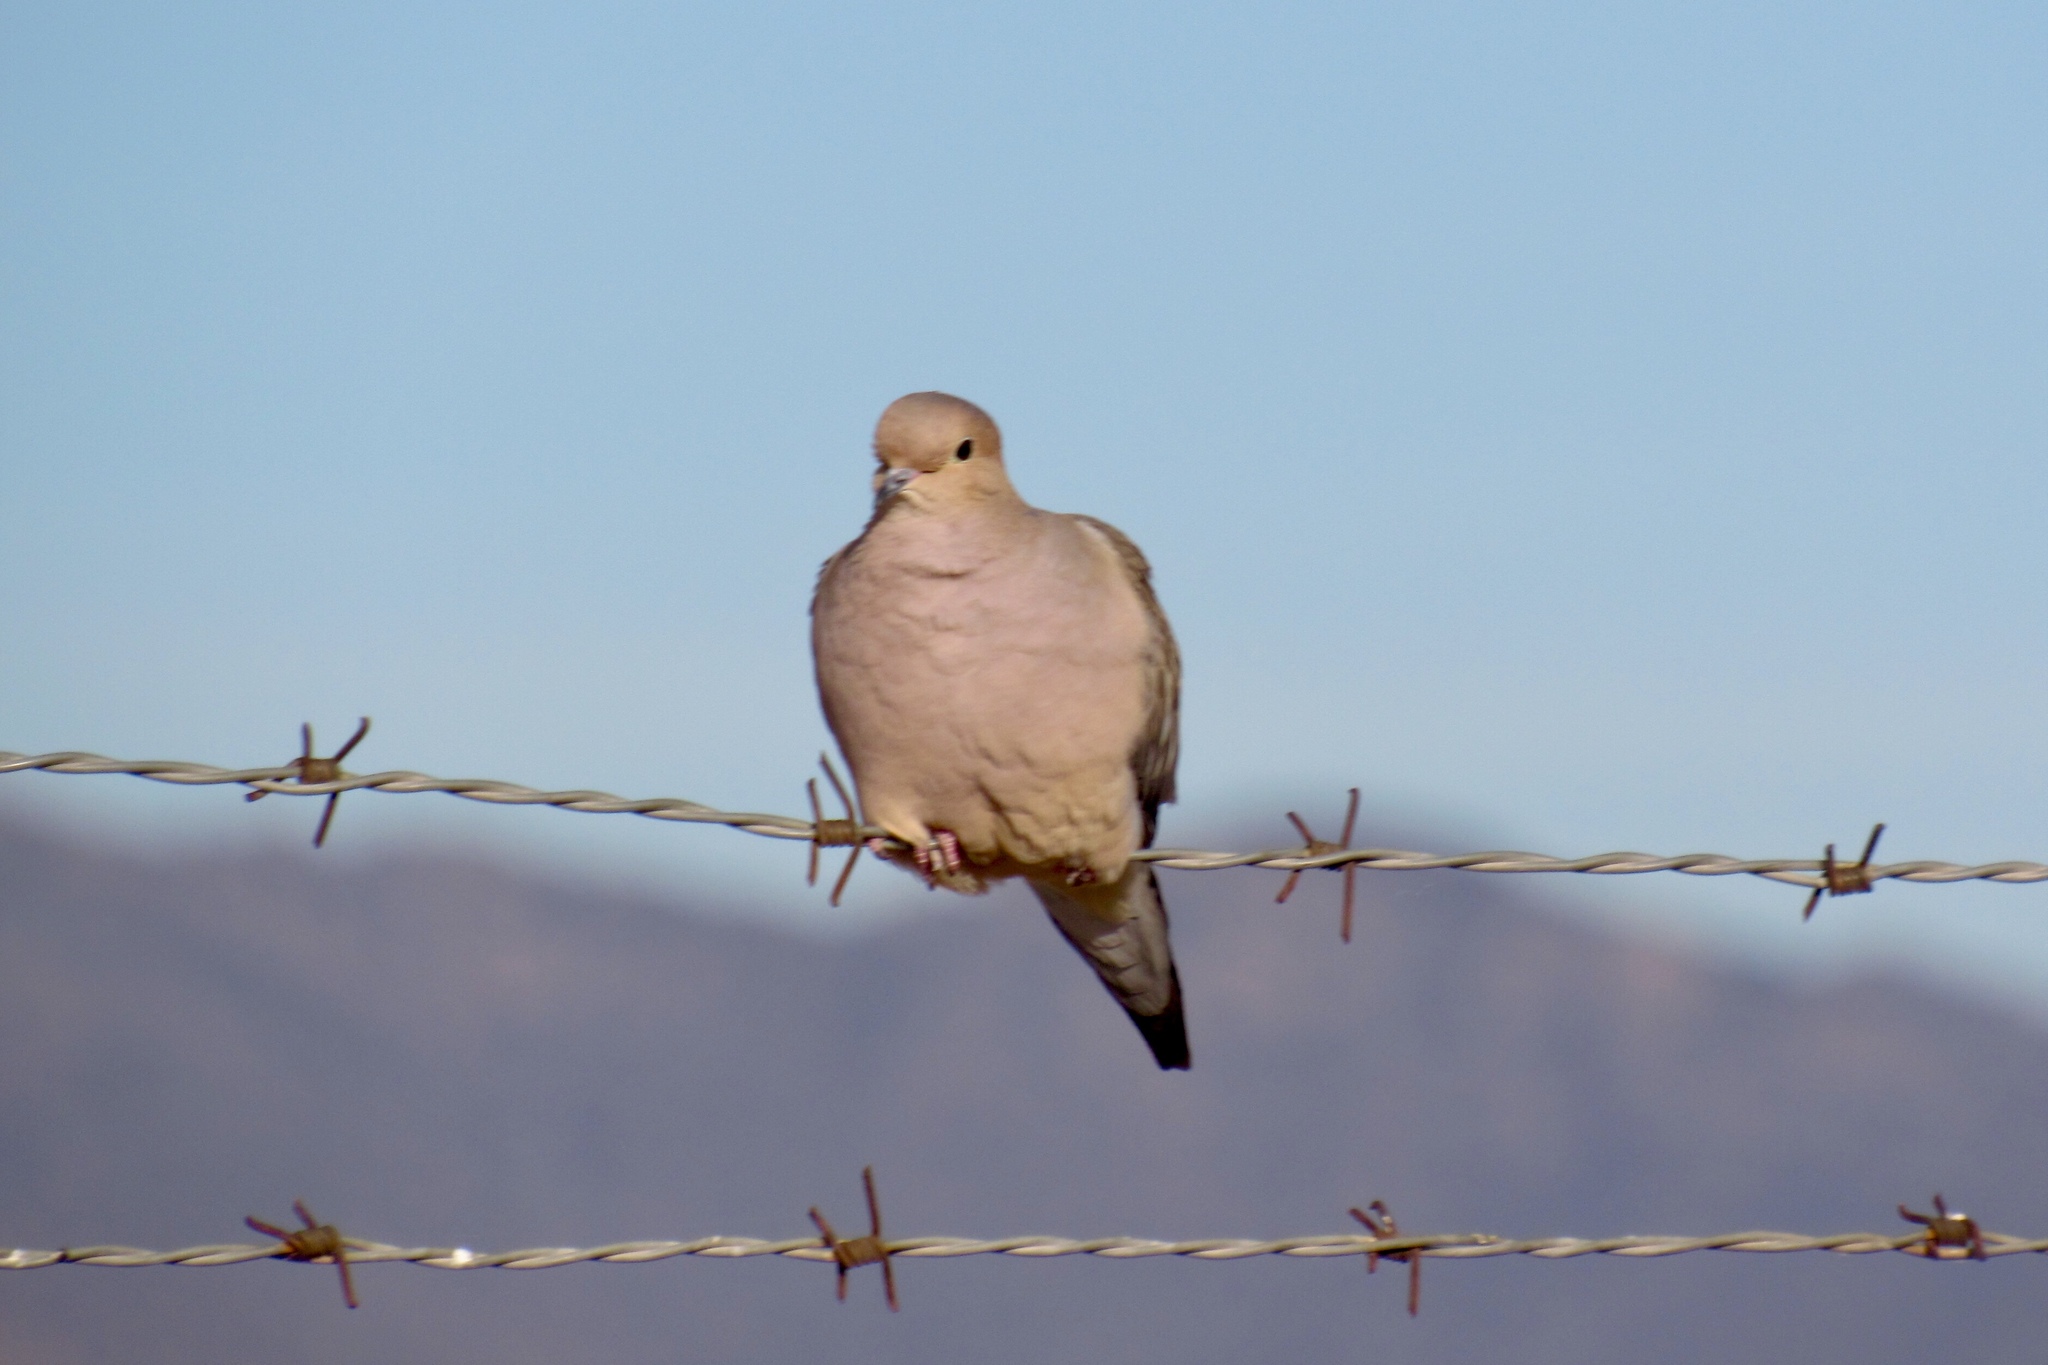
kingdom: Animalia
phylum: Chordata
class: Aves
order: Columbiformes
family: Columbidae
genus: Zenaida
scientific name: Zenaida macroura
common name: Mourning dove
